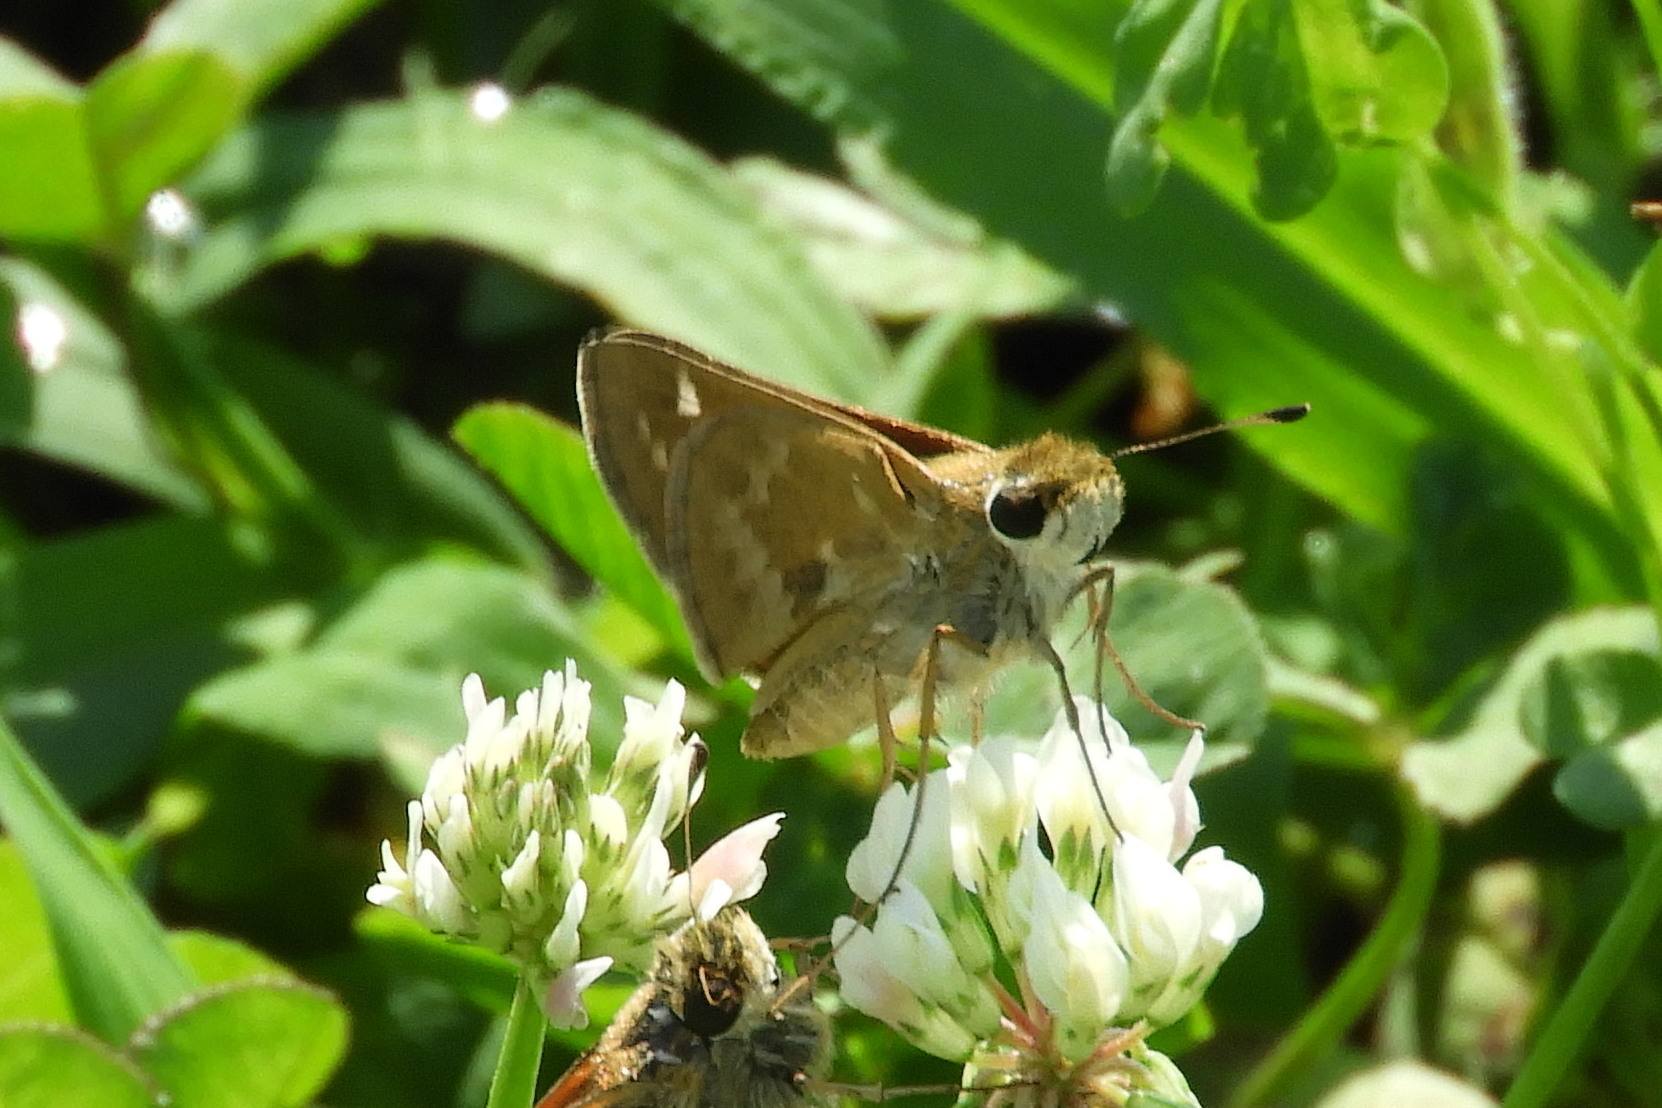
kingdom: Animalia
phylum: Arthropoda
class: Insecta
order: Lepidoptera
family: Hesperiidae
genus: Atalopedes
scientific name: Atalopedes
